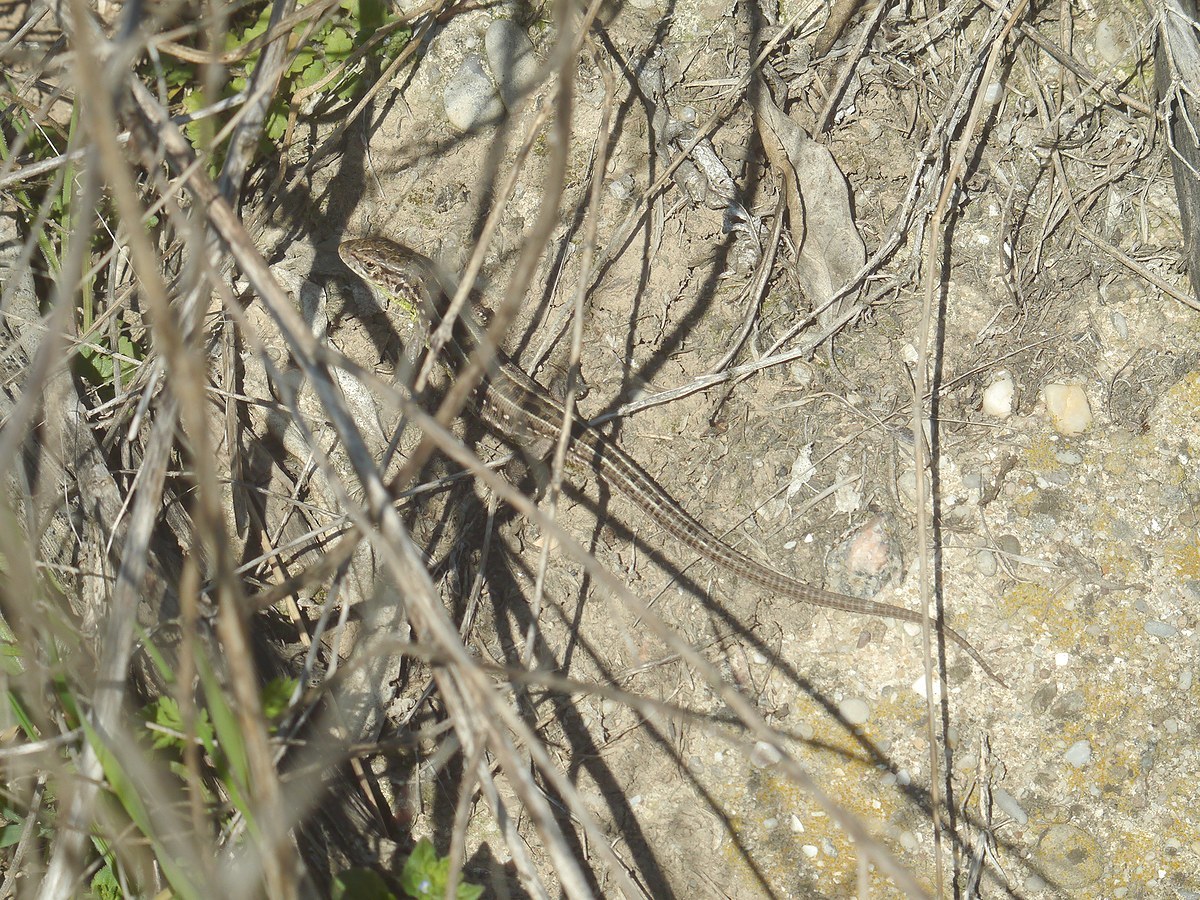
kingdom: Animalia
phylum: Chordata
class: Squamata
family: Lacertidae
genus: Lacerta
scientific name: Lacerta agilis
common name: Sand lizard
